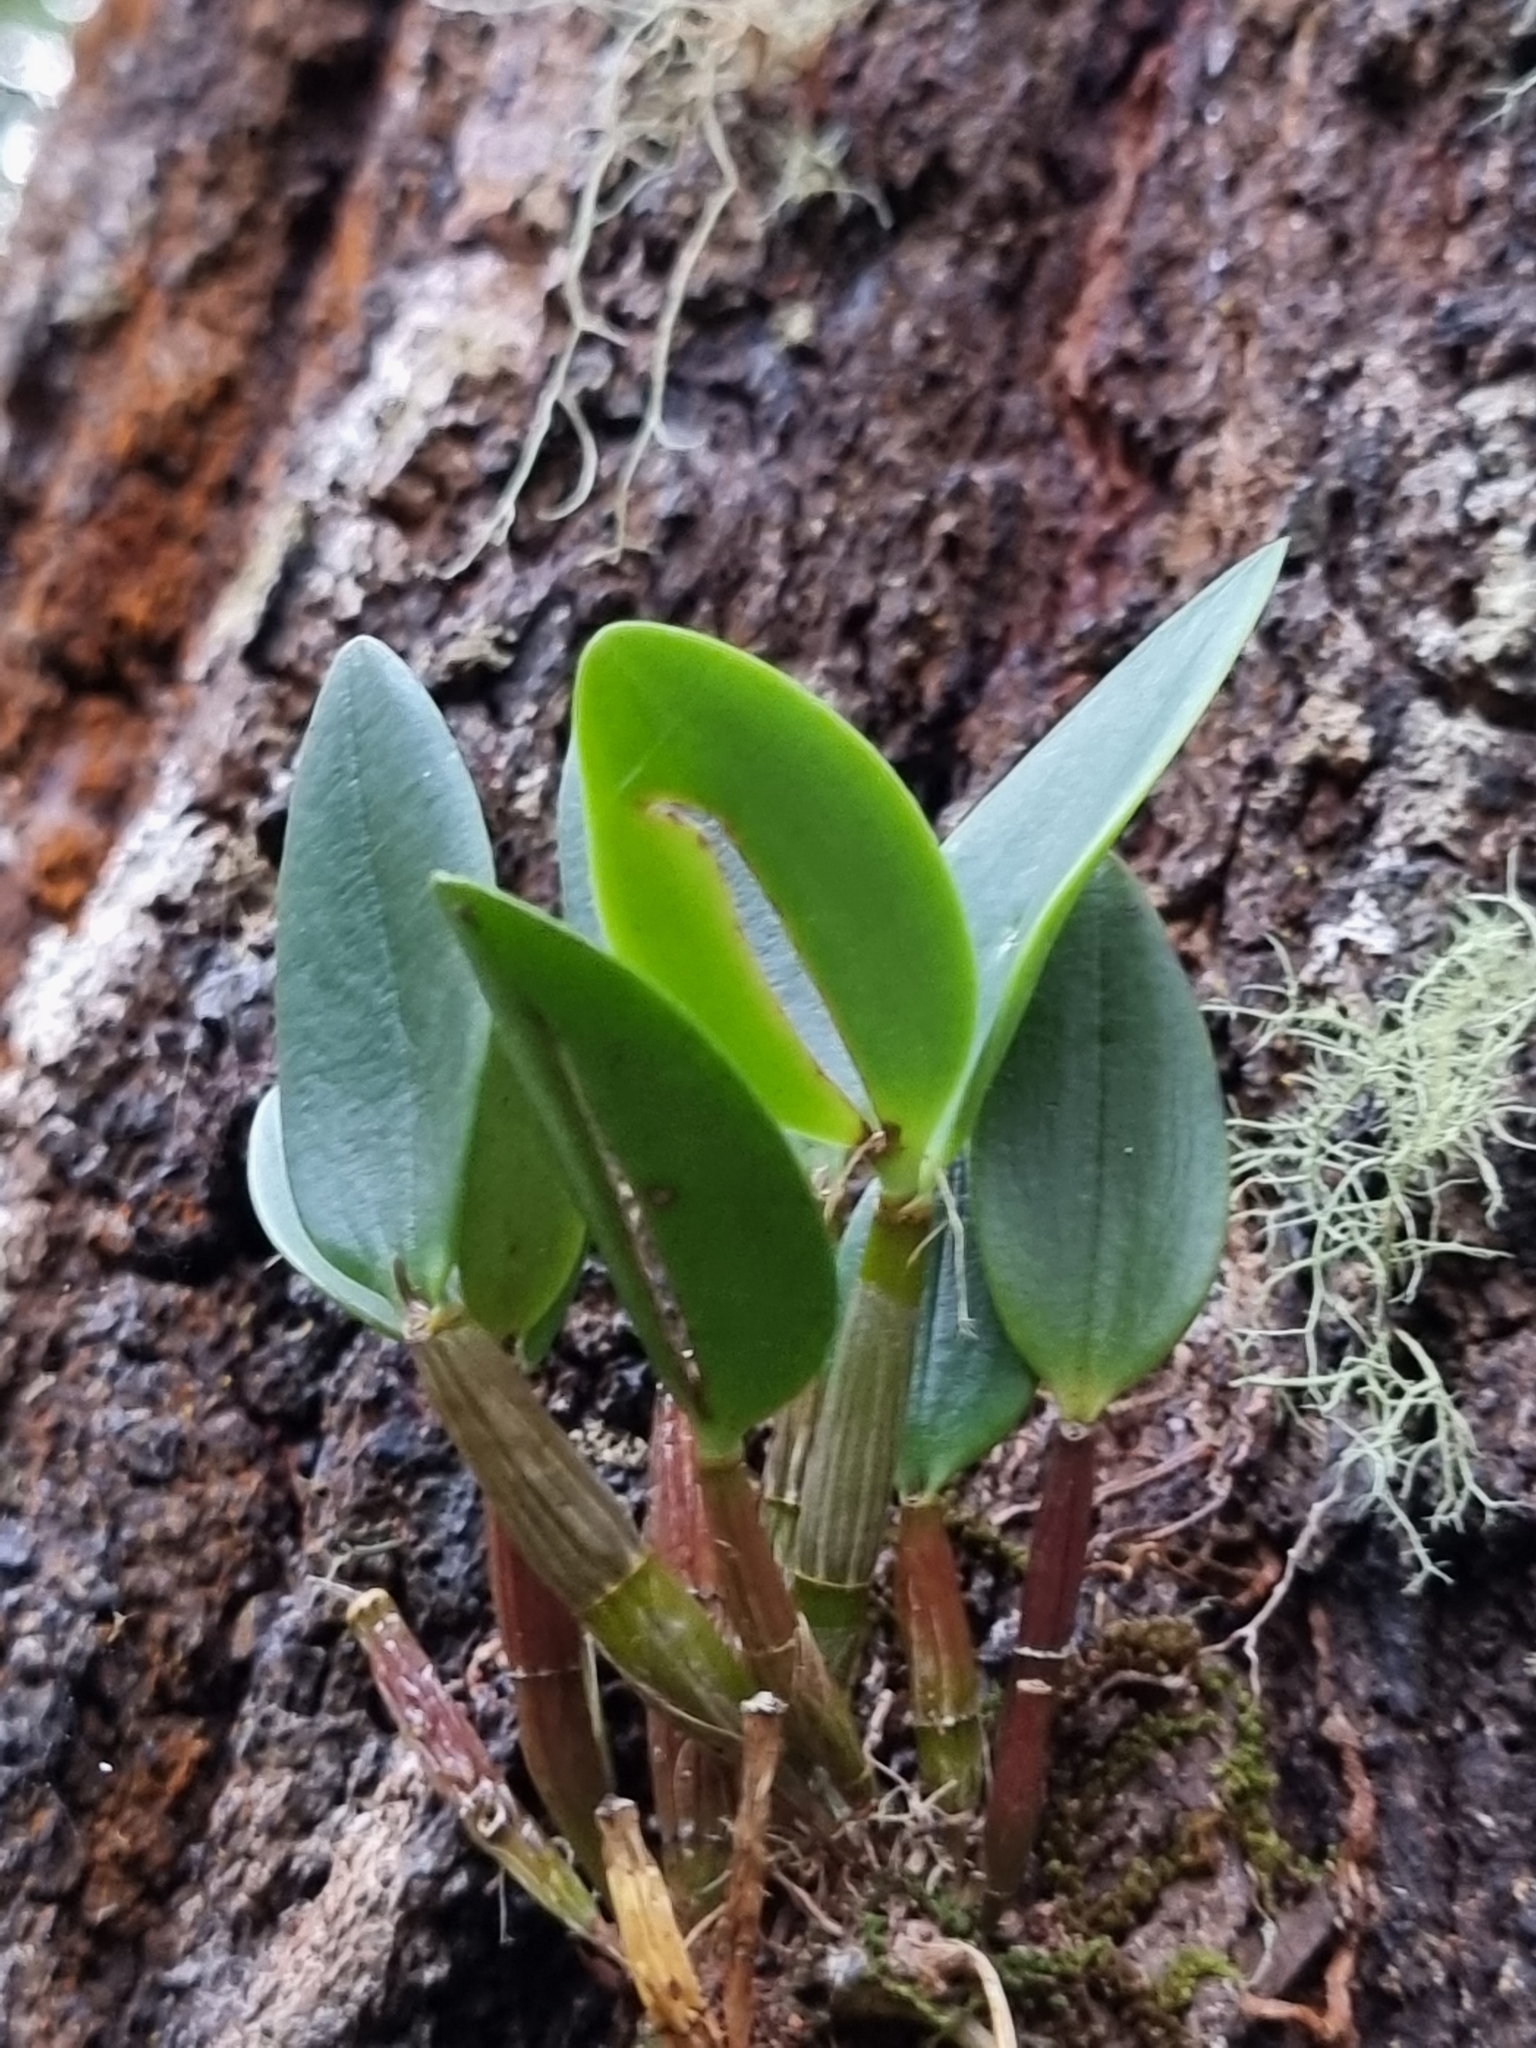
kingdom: Plantae
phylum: Tracheophyta
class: Liliopsida
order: Asparagales
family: Orchidaceae
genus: Dendrobium
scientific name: Dendrobium aemulum
